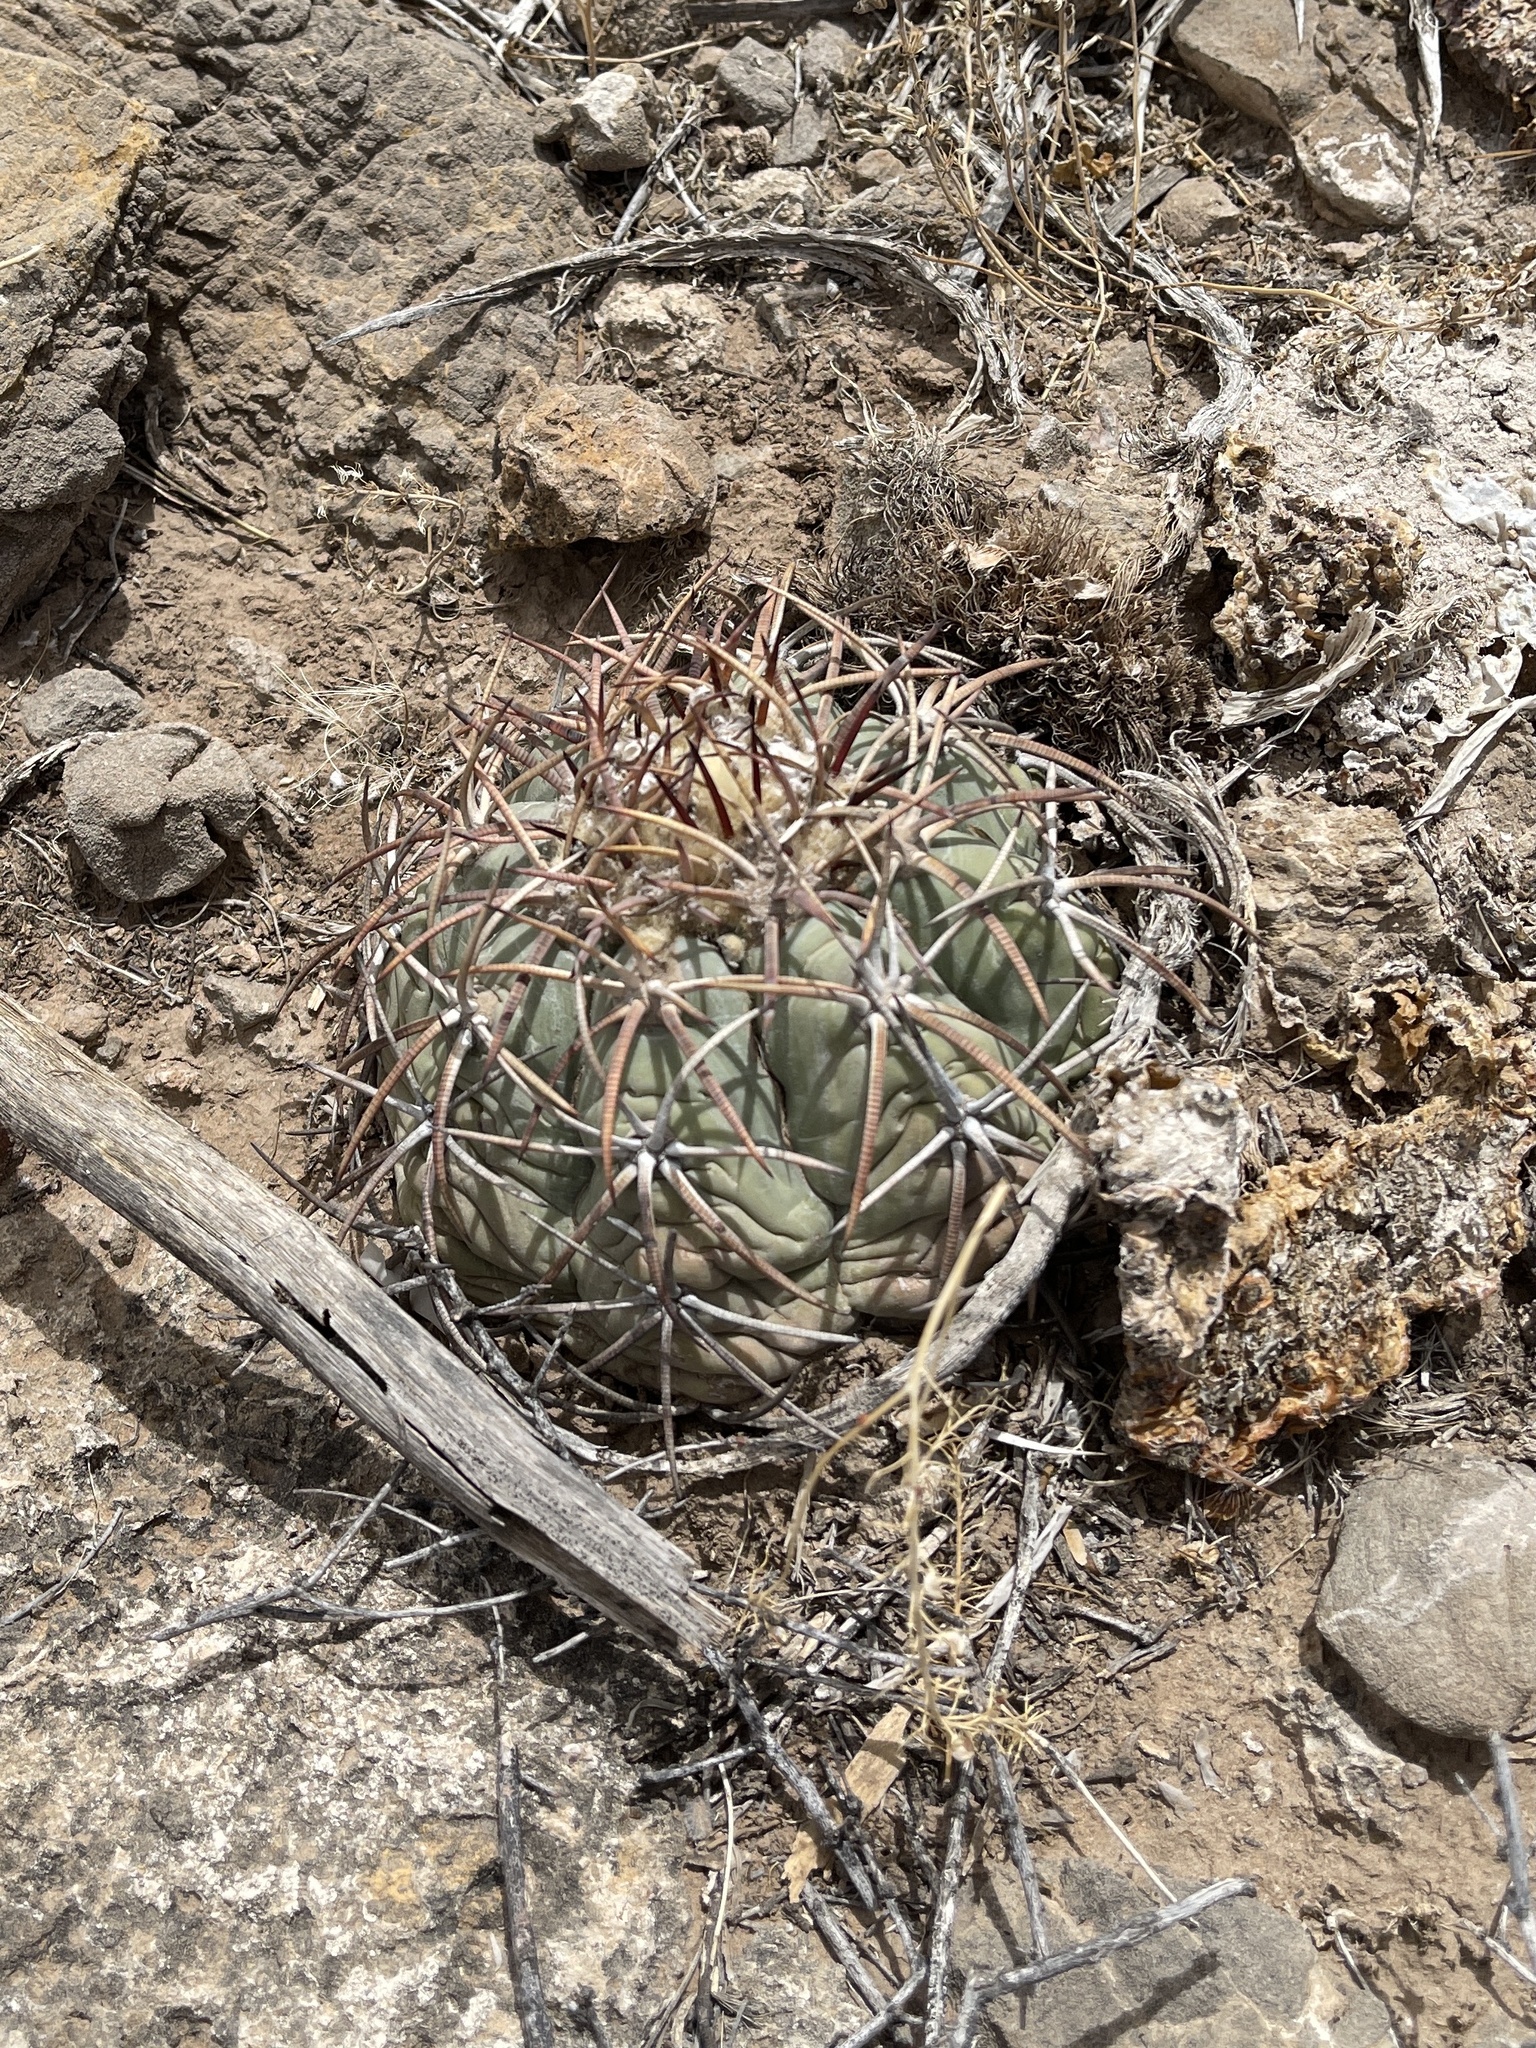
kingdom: Plantae
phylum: Tracheophyta
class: Magnoliopsida
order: Caryophyllales
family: Cactaceae
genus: Echinocactus
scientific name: Echinocactus horizonthalonius
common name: Devilshead
